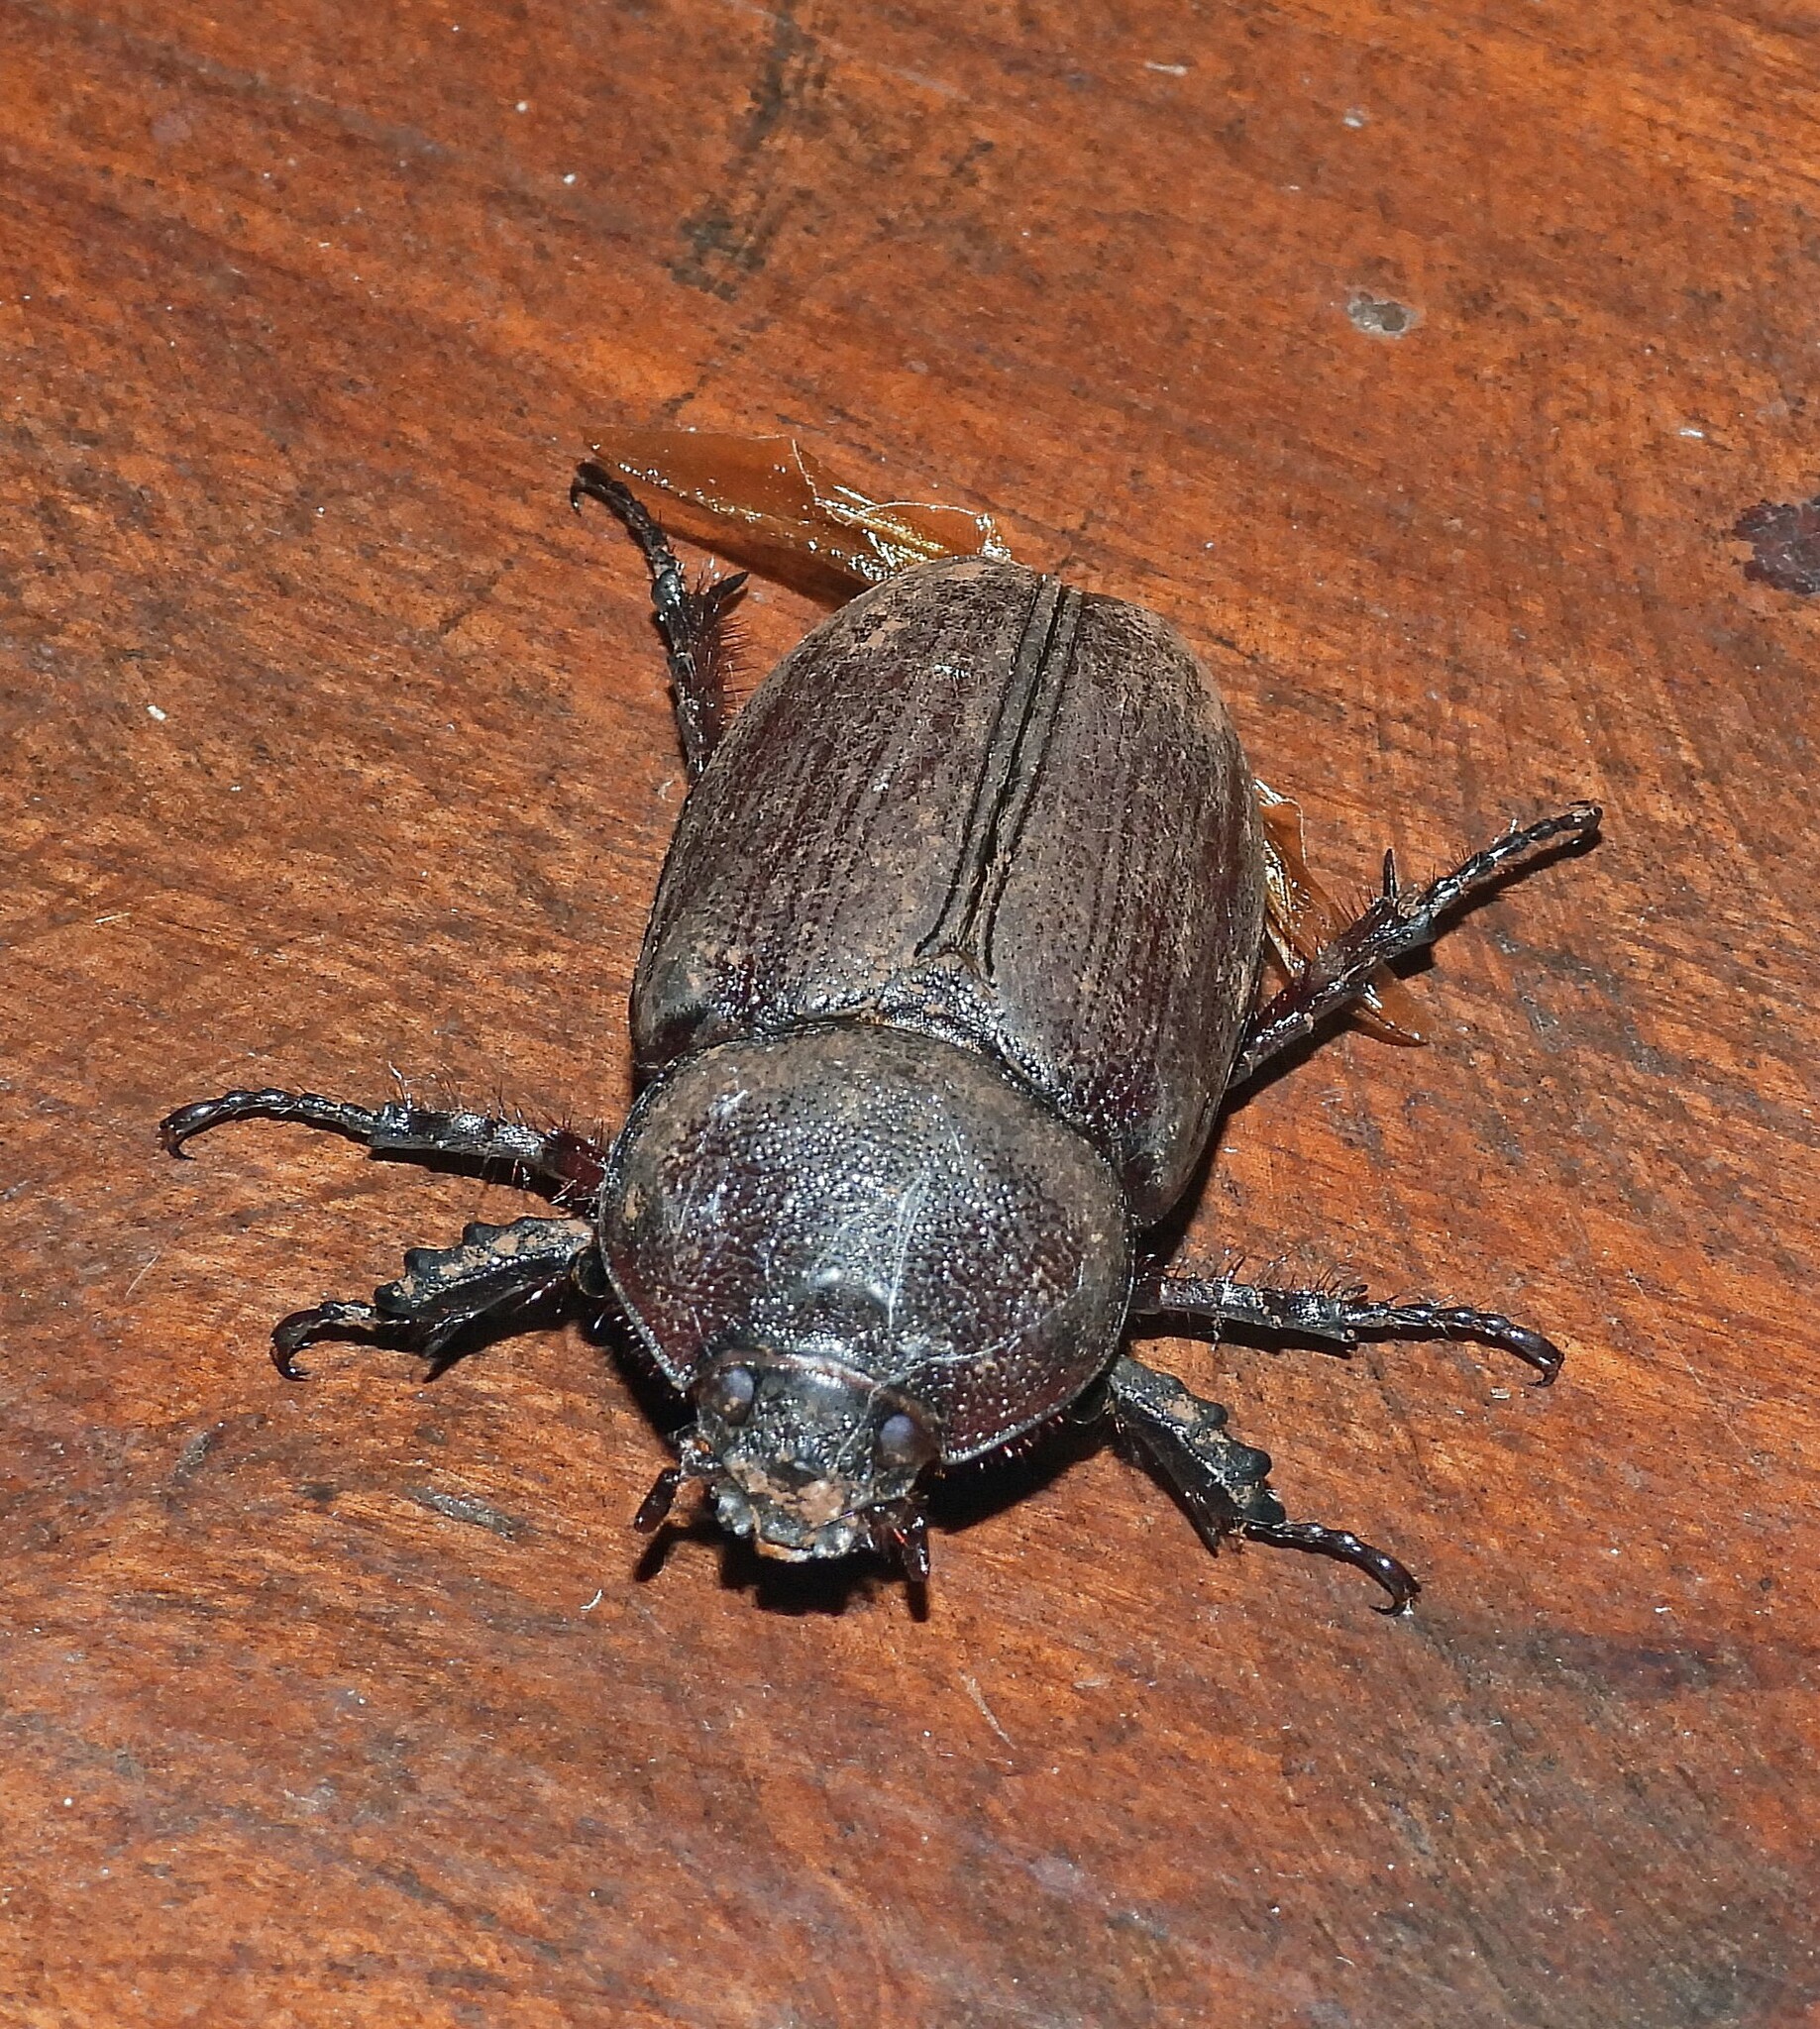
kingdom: Animalia
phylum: Arthropoda
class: Insecta
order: Coleoptera
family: Scarabaeidae
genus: Coelosis
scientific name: Coelosis bicornis
